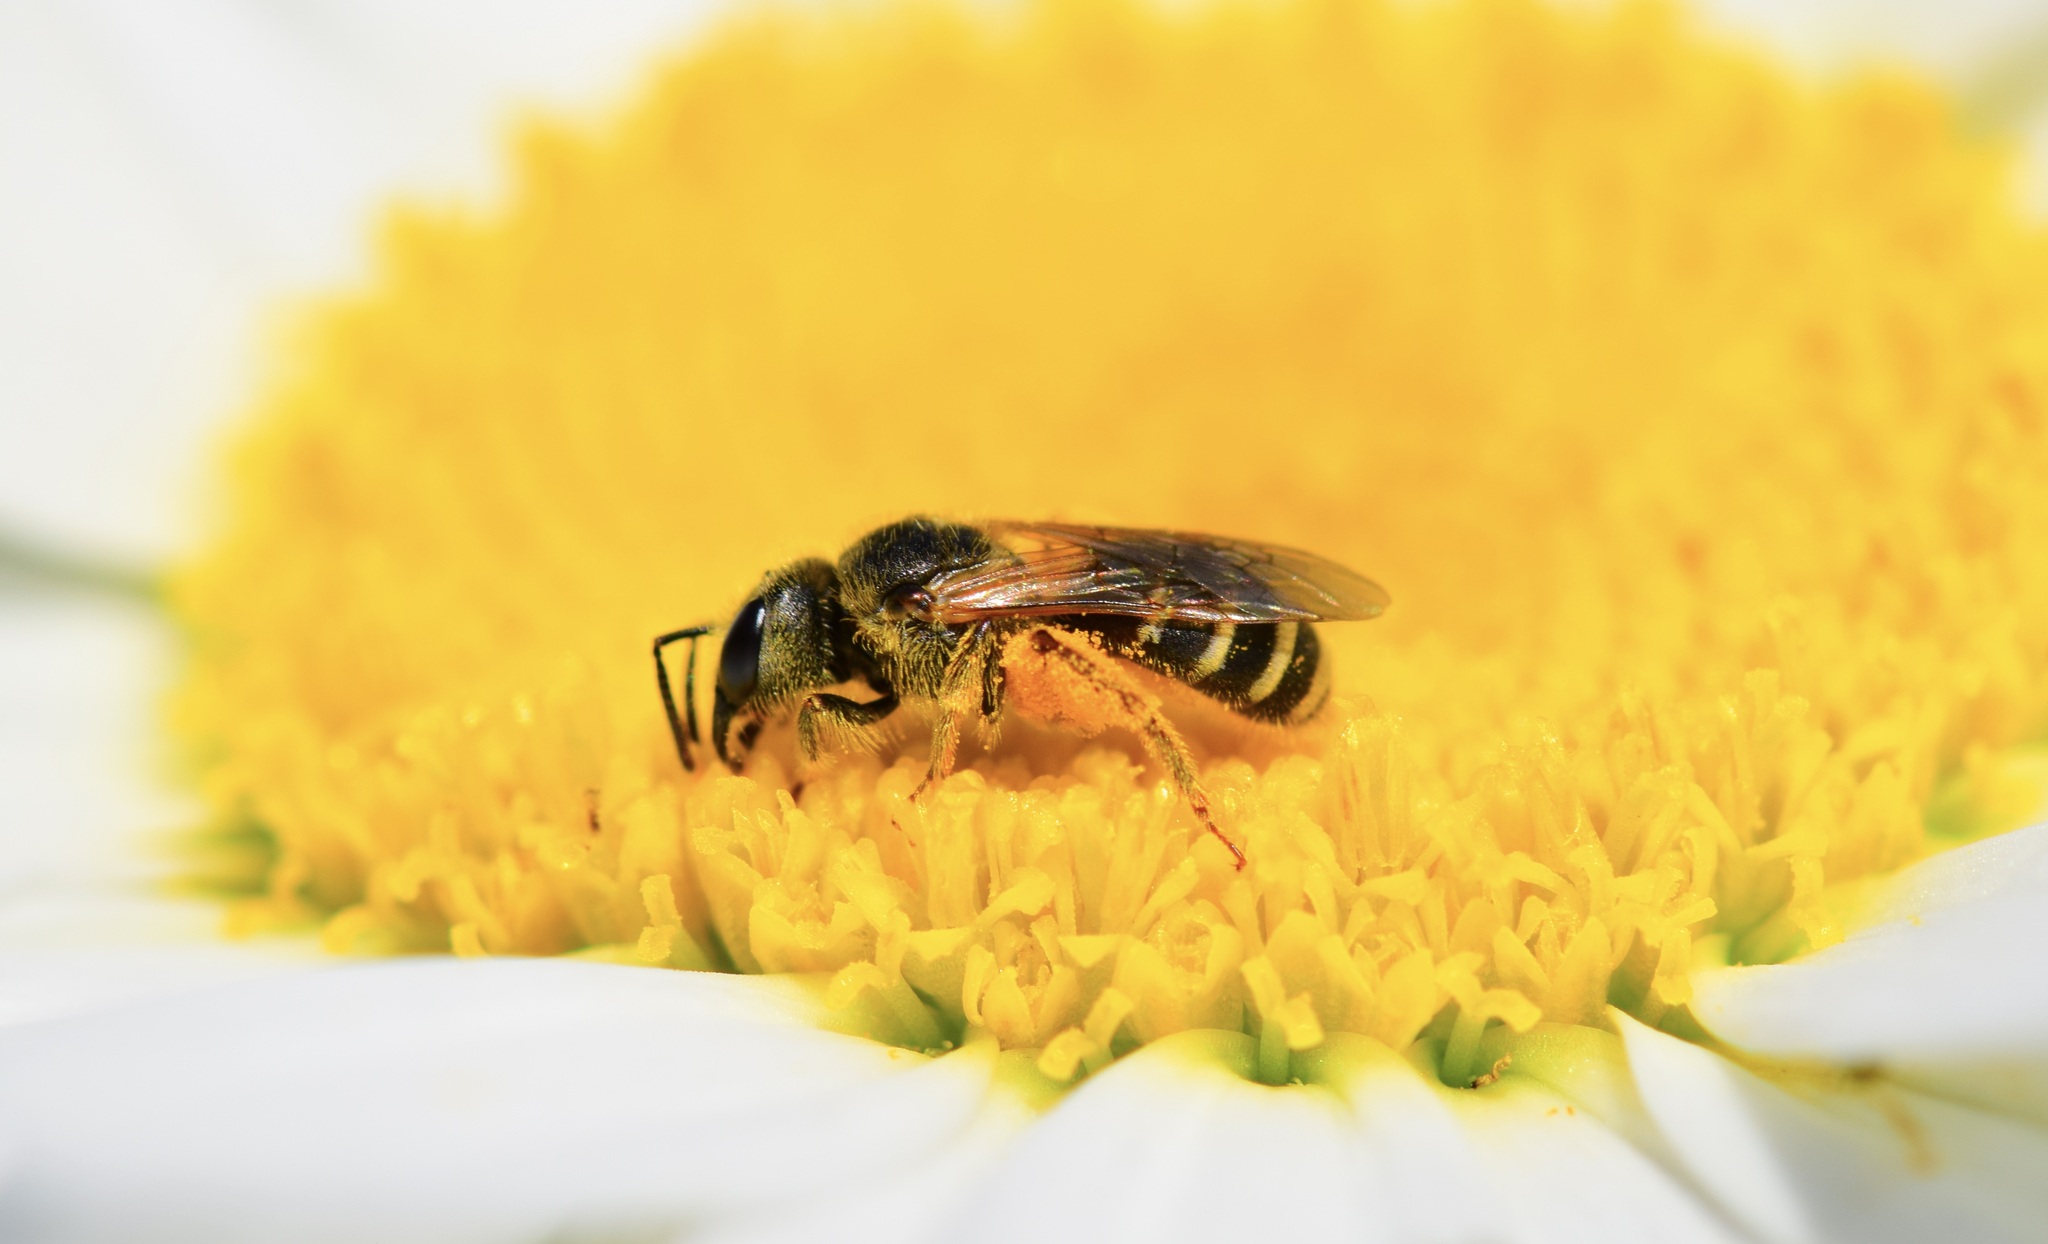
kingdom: Animalia
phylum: Arthropoda
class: Insecta
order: Hymenoptera
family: Halictidae
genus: Halictus
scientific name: Halictus ligatus
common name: Ligated furrow bee
